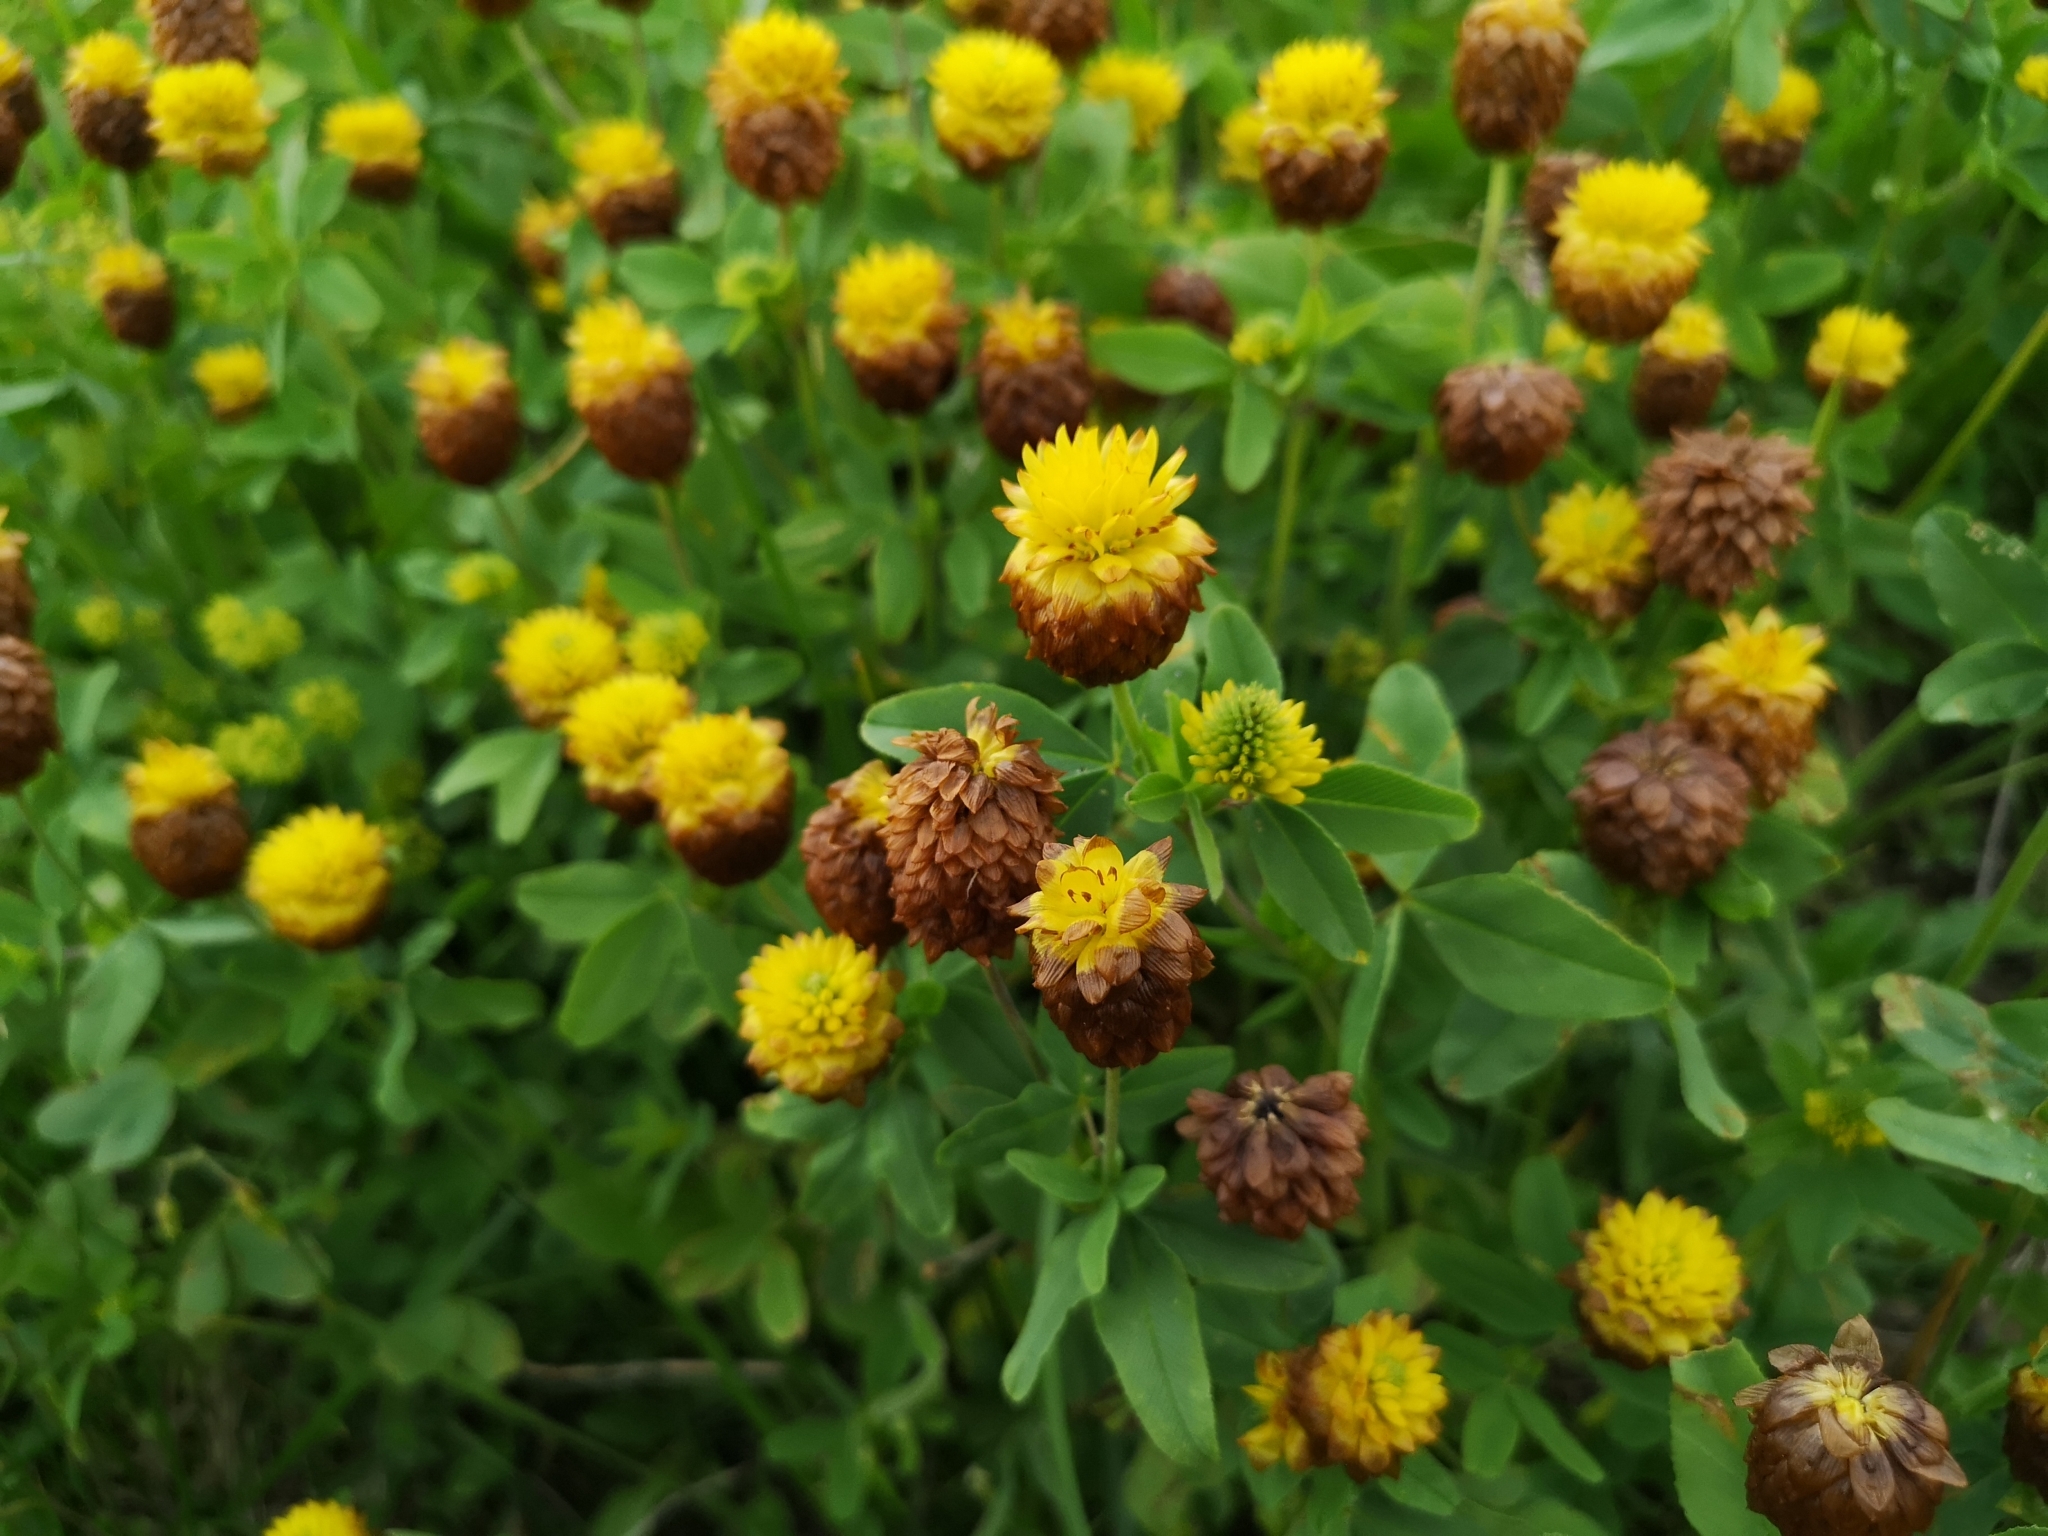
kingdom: Plantae
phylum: Tracheophyta
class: Magnoliopsida
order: Fabales
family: Fabaceae
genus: Trifolium
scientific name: Trifolium badium
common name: Brown clover
